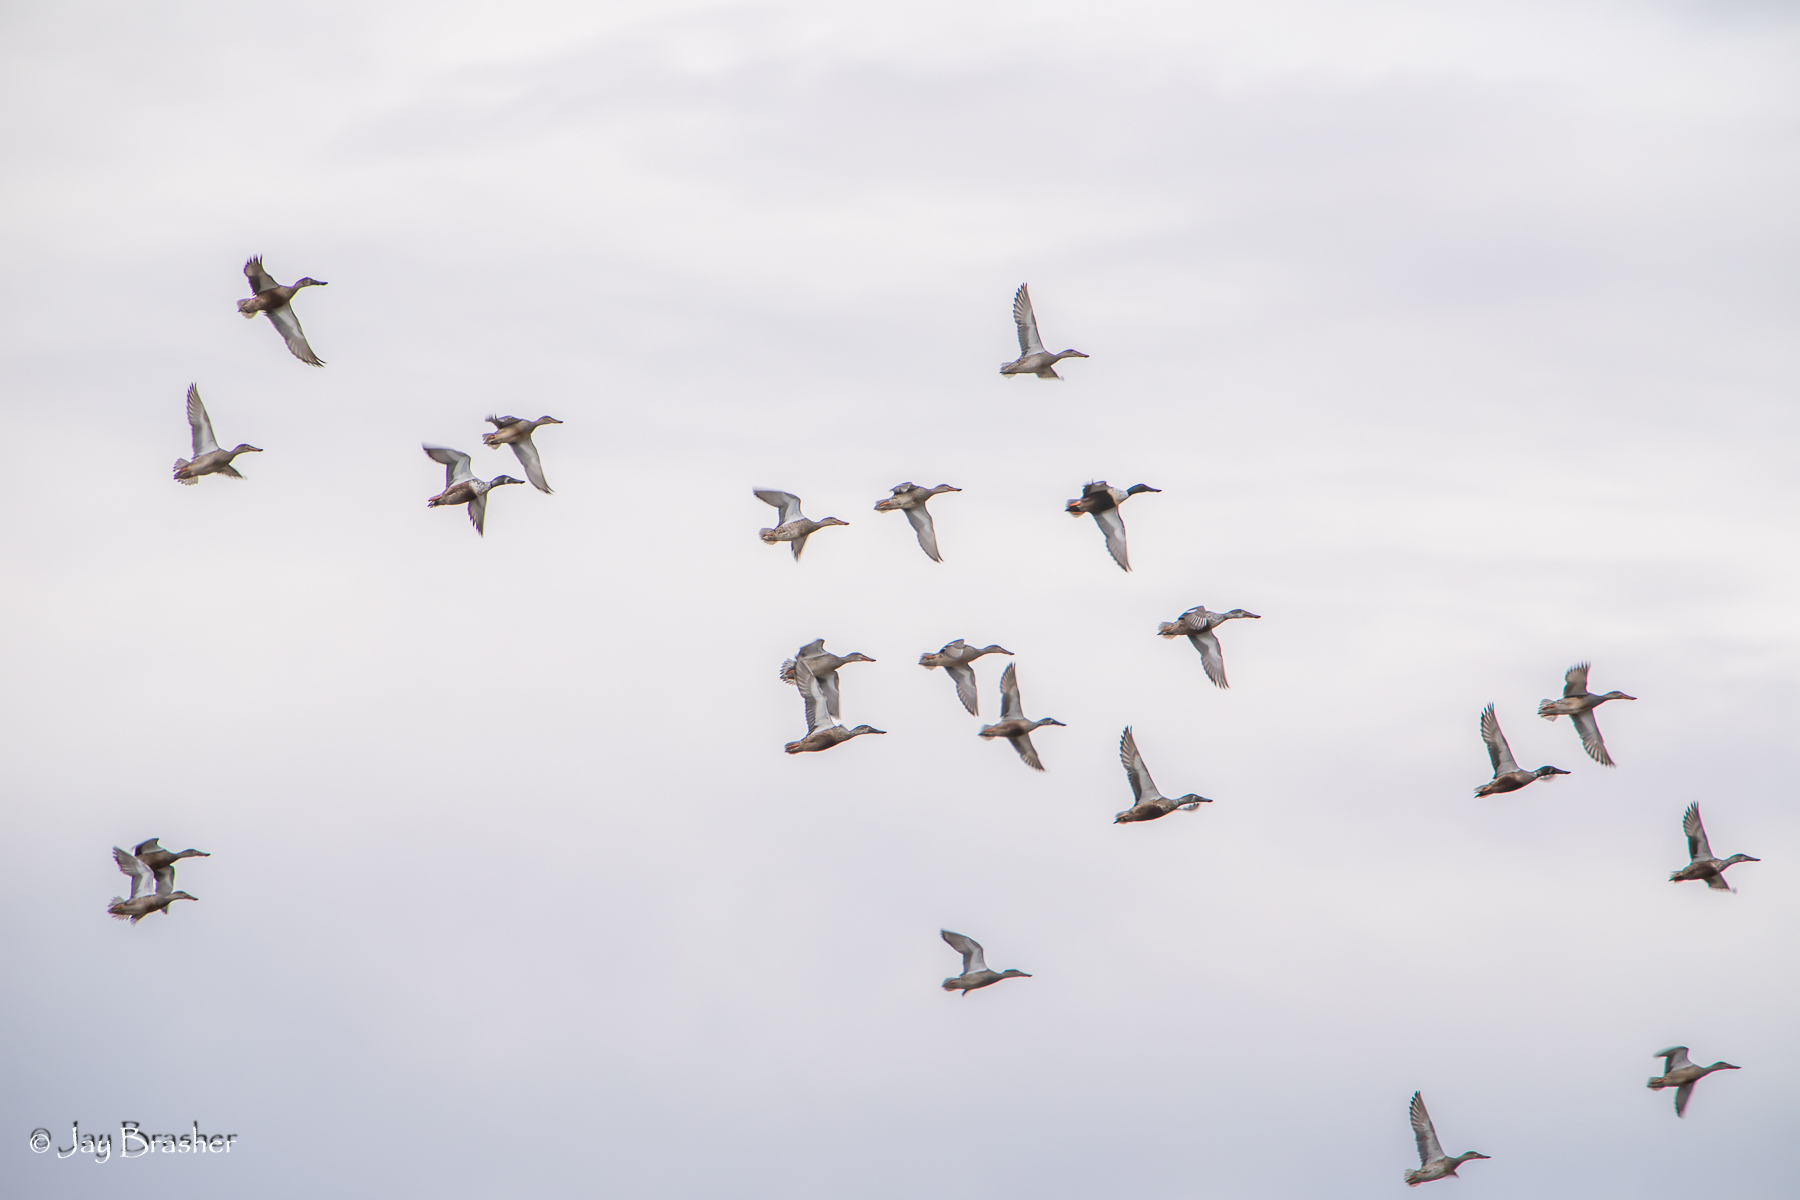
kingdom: Animalia
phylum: Chordata
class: Aves
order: Anseriformes
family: Anatidae
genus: Spatula
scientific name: Spatula clypeata
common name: Northern shoveler
